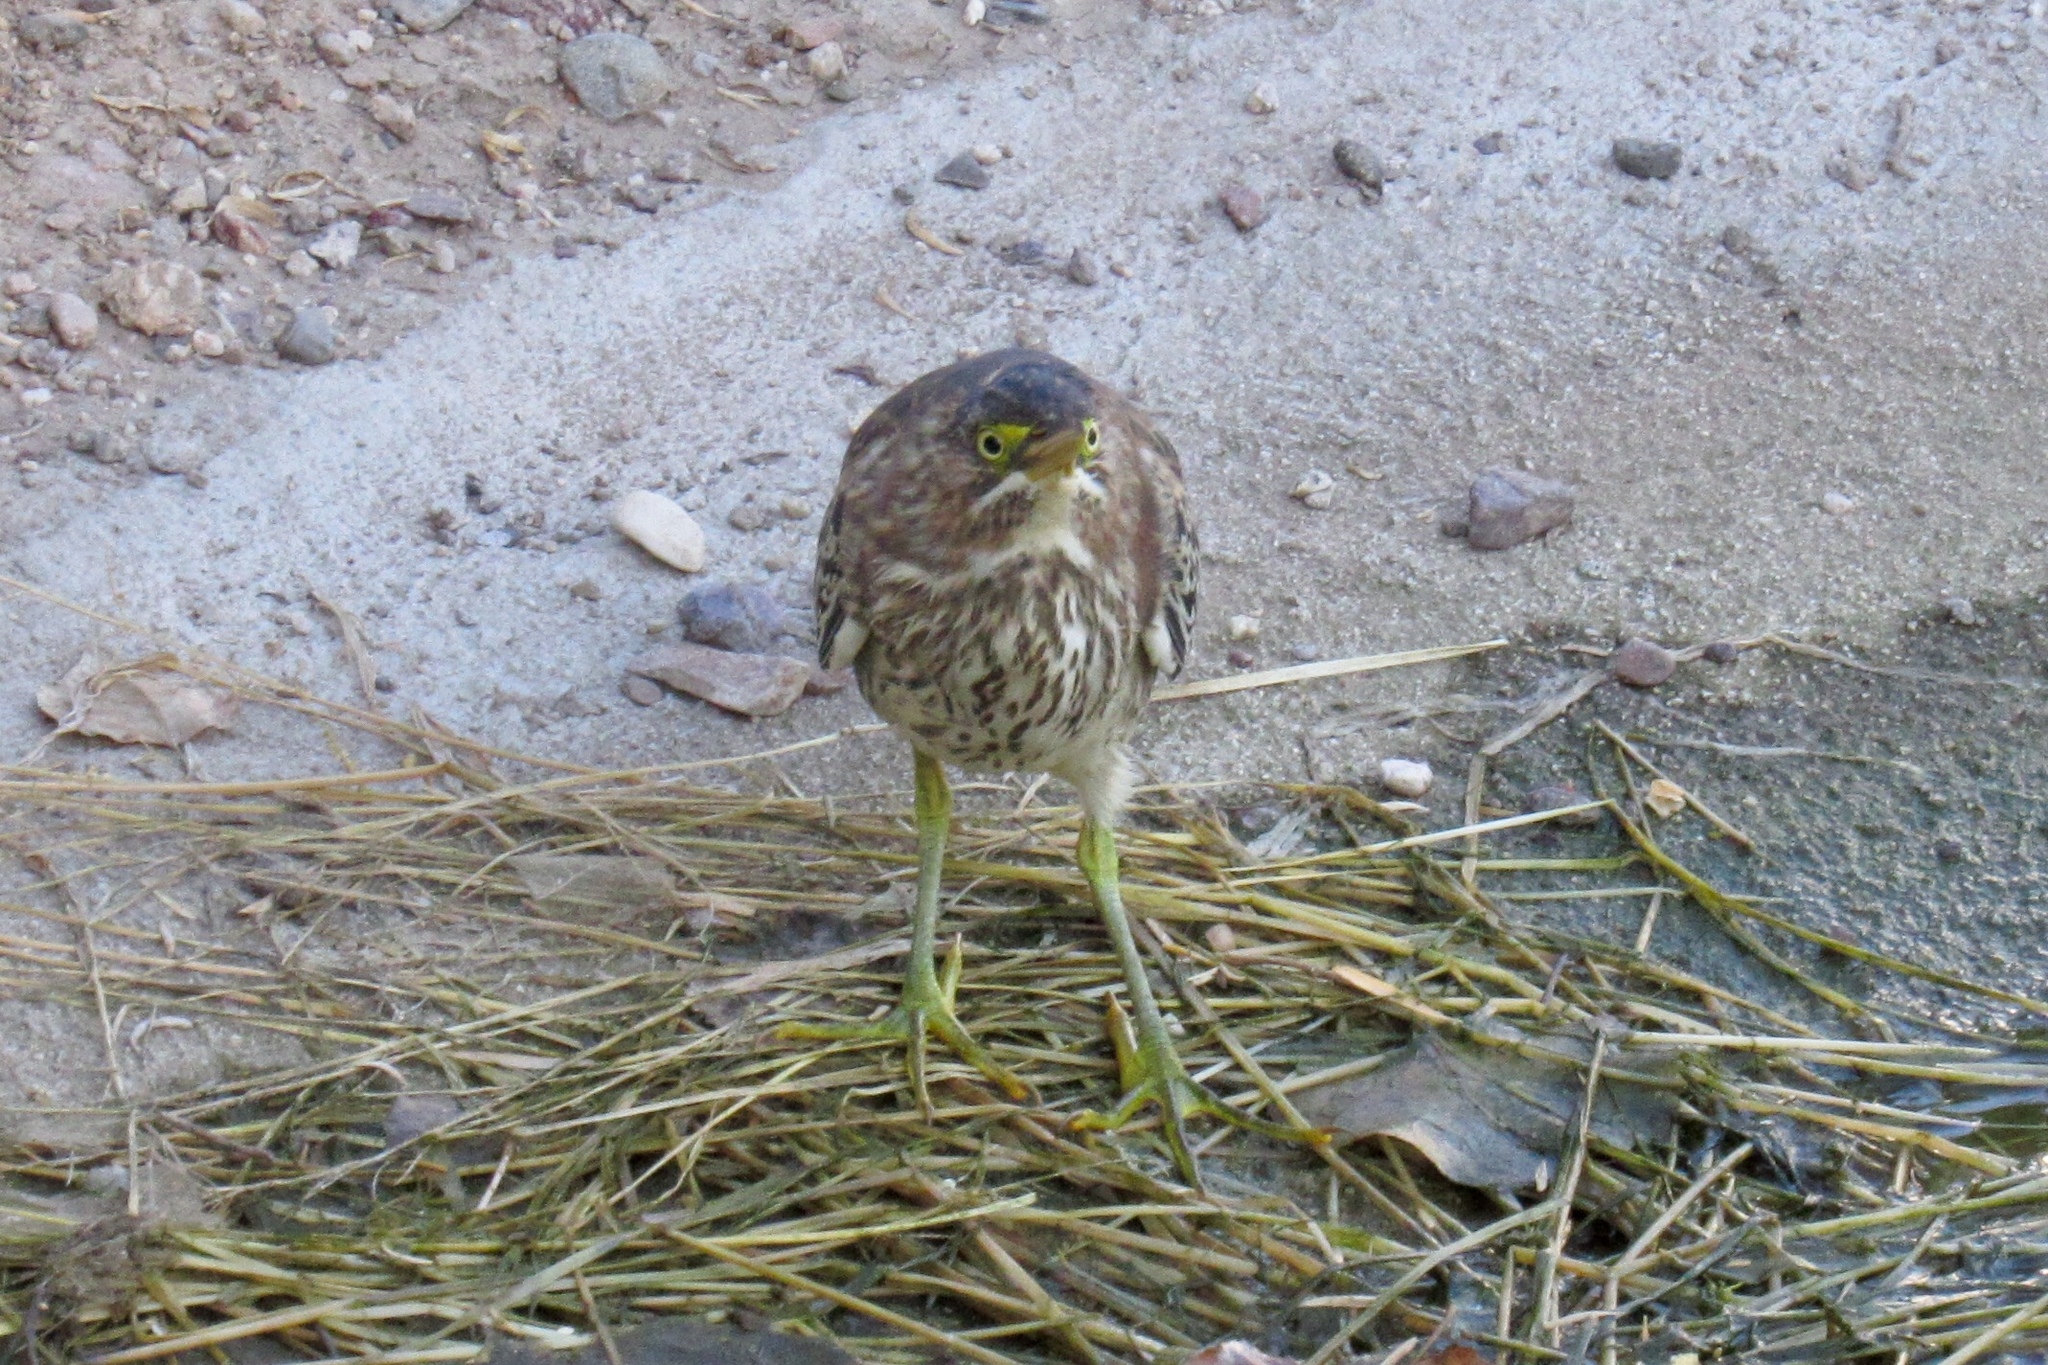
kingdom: Animalia
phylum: Chordata
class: Aves
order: Pelecaniformes
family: Ardeidae
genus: Butorides
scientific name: Butorides virescens
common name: Green heron
